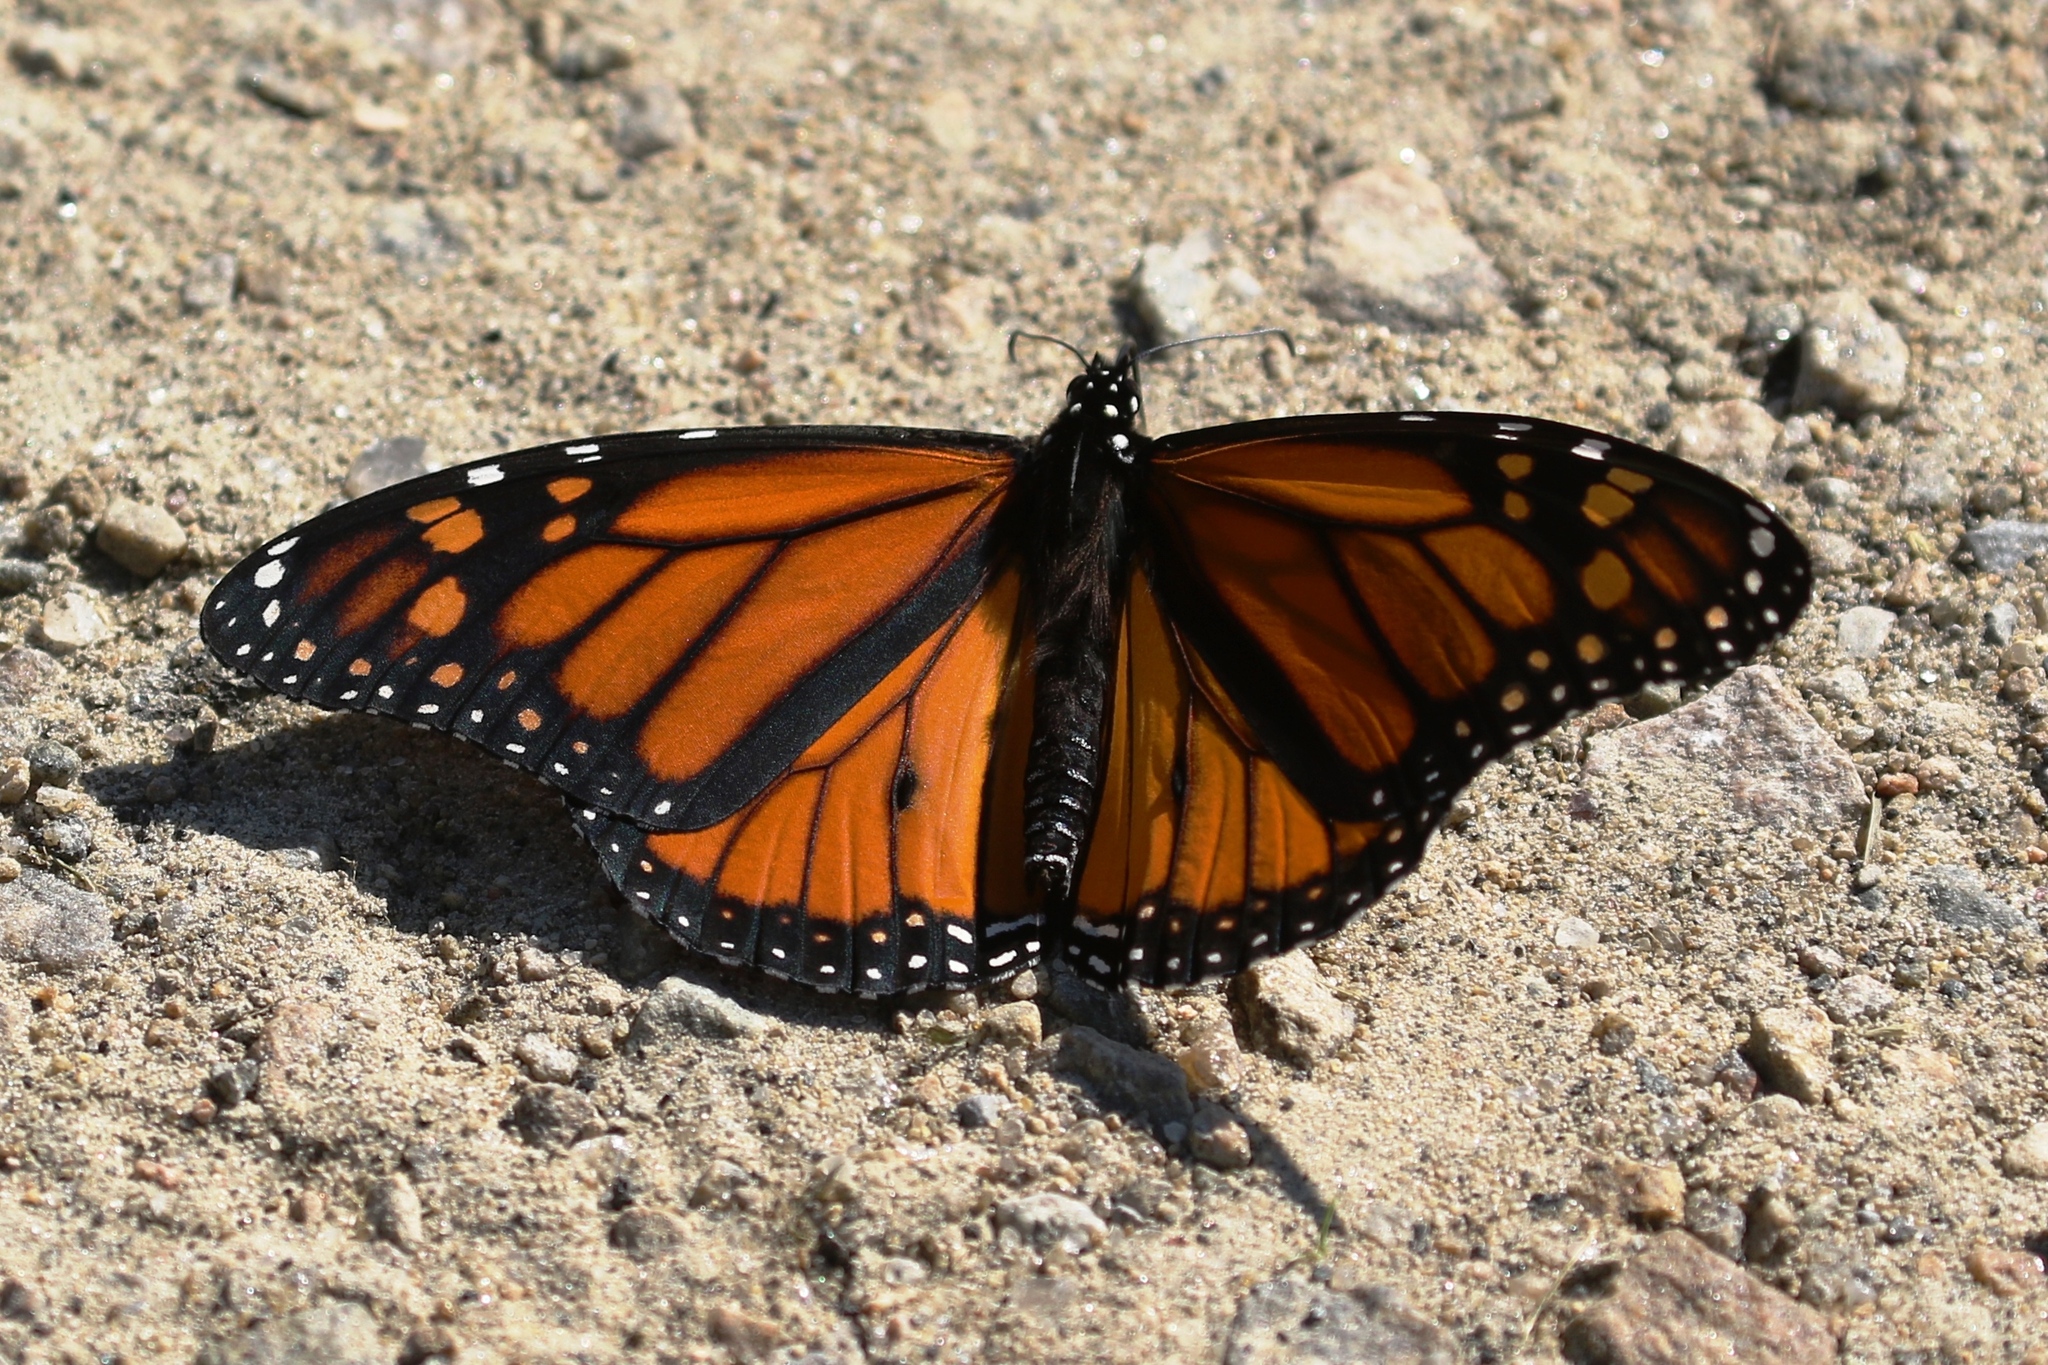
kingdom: Animalia
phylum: Arthropoda
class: Insecta
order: Lepidoptera
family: Nymphalidae
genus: Danaus
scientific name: Danaus plexippus
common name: Monarch
